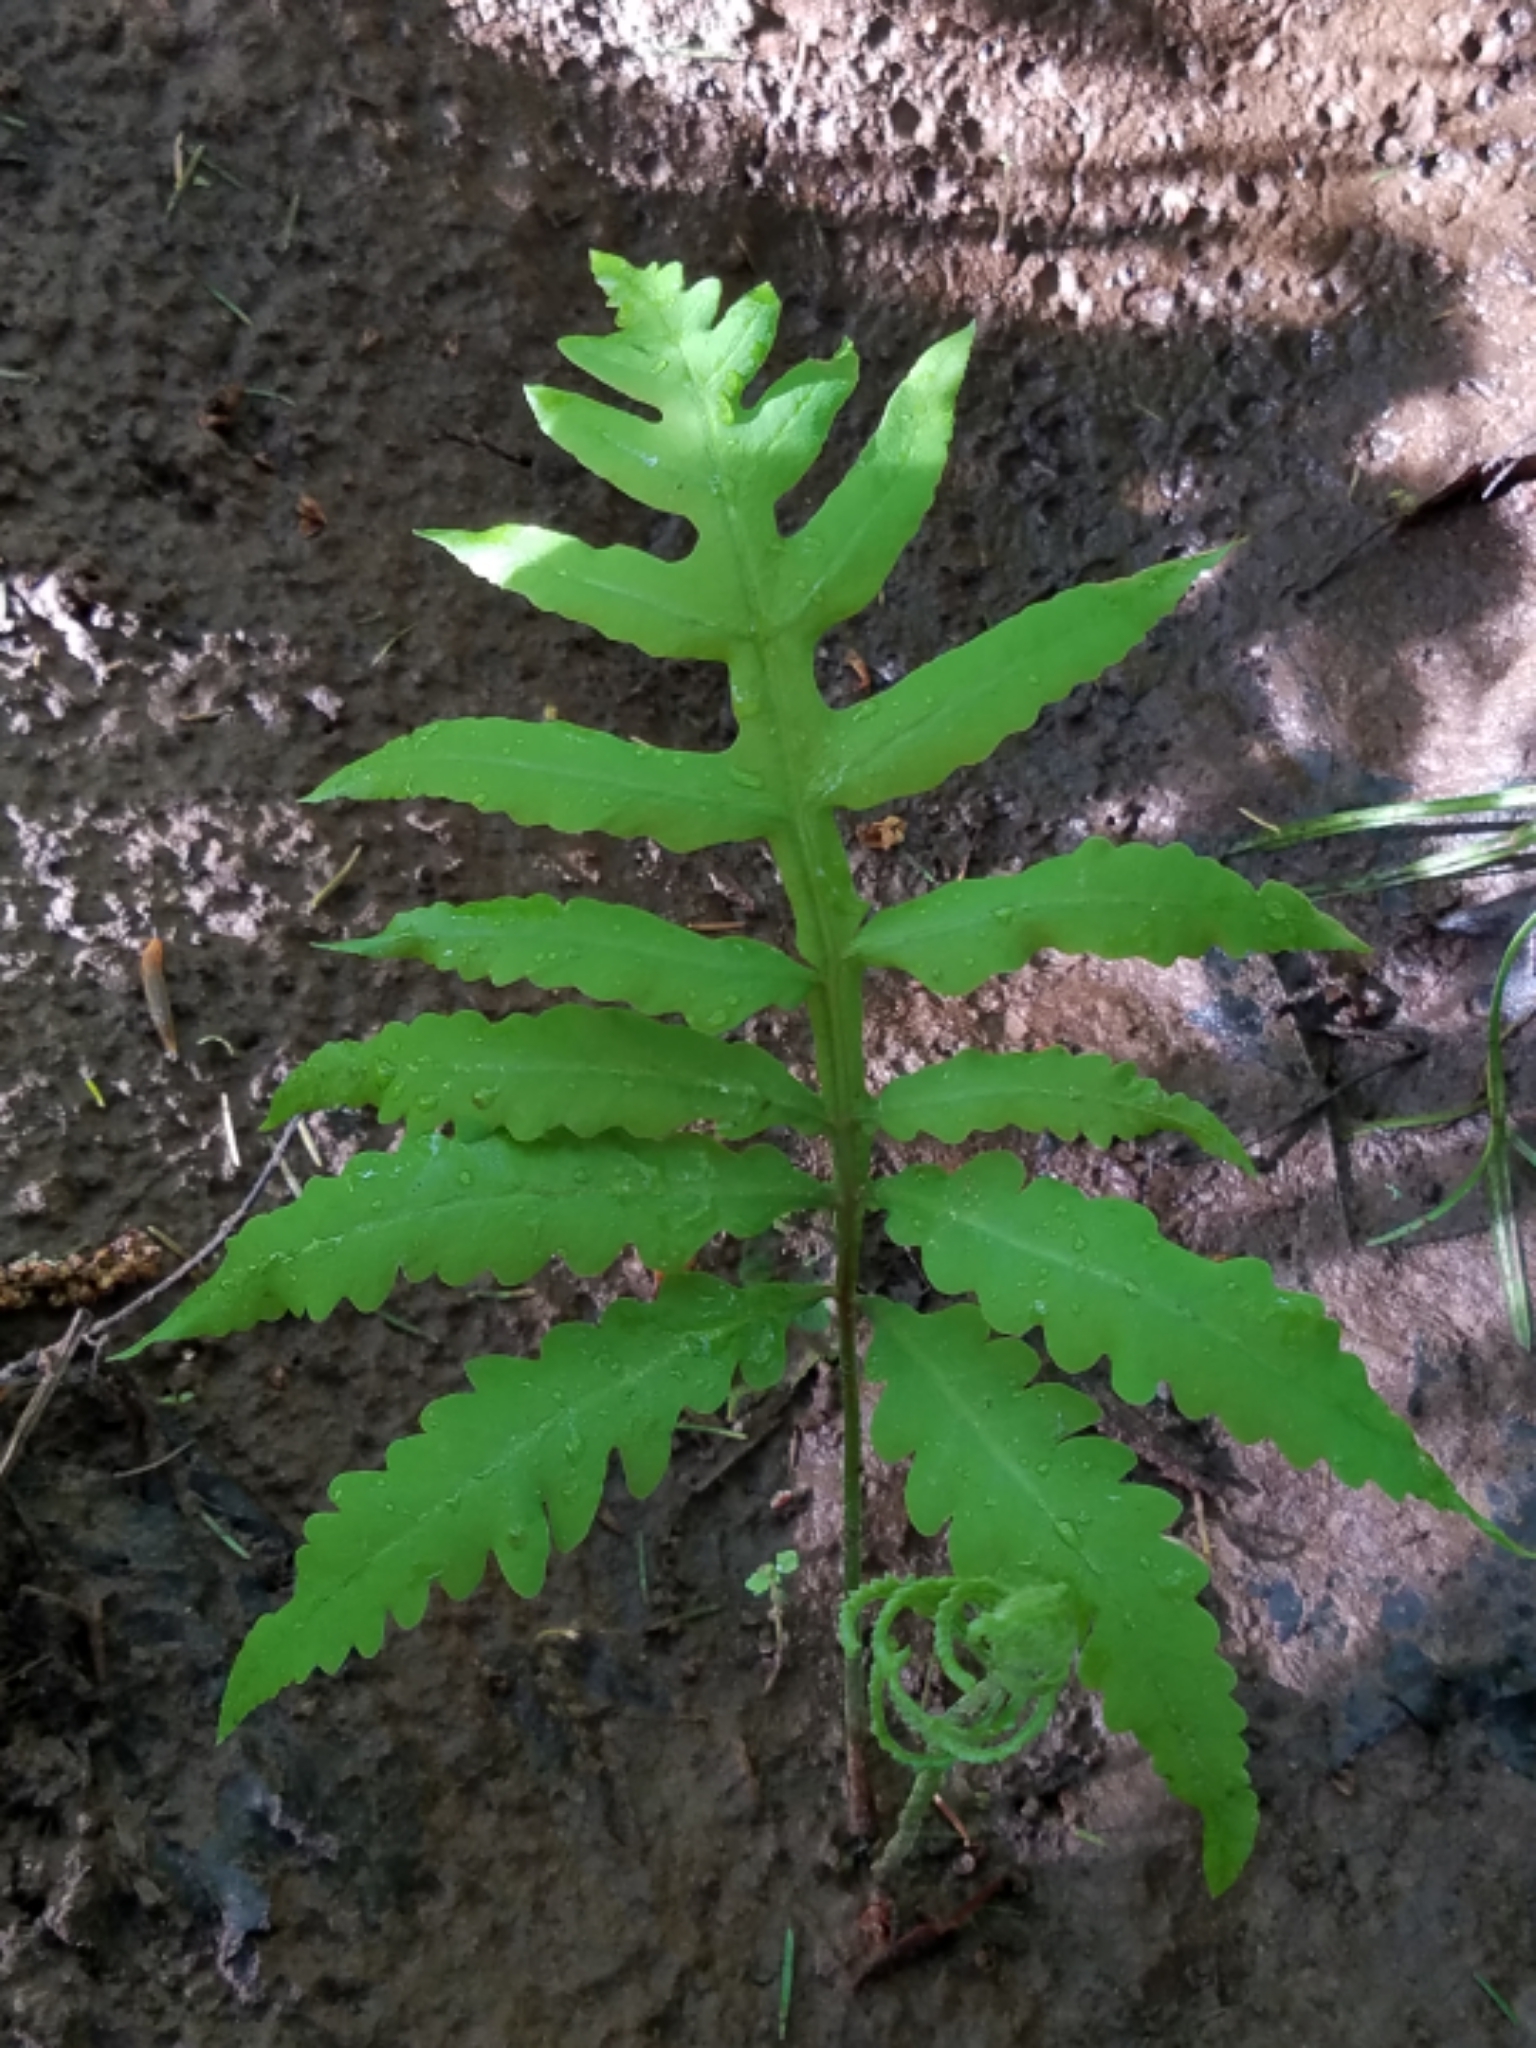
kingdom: Plantae
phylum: Tracheophyta
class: Polypodiopsida
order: Polypodiales
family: Onocleaceae
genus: Onoclea
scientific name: Onoclea sensibilis
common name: Sensitive fern
